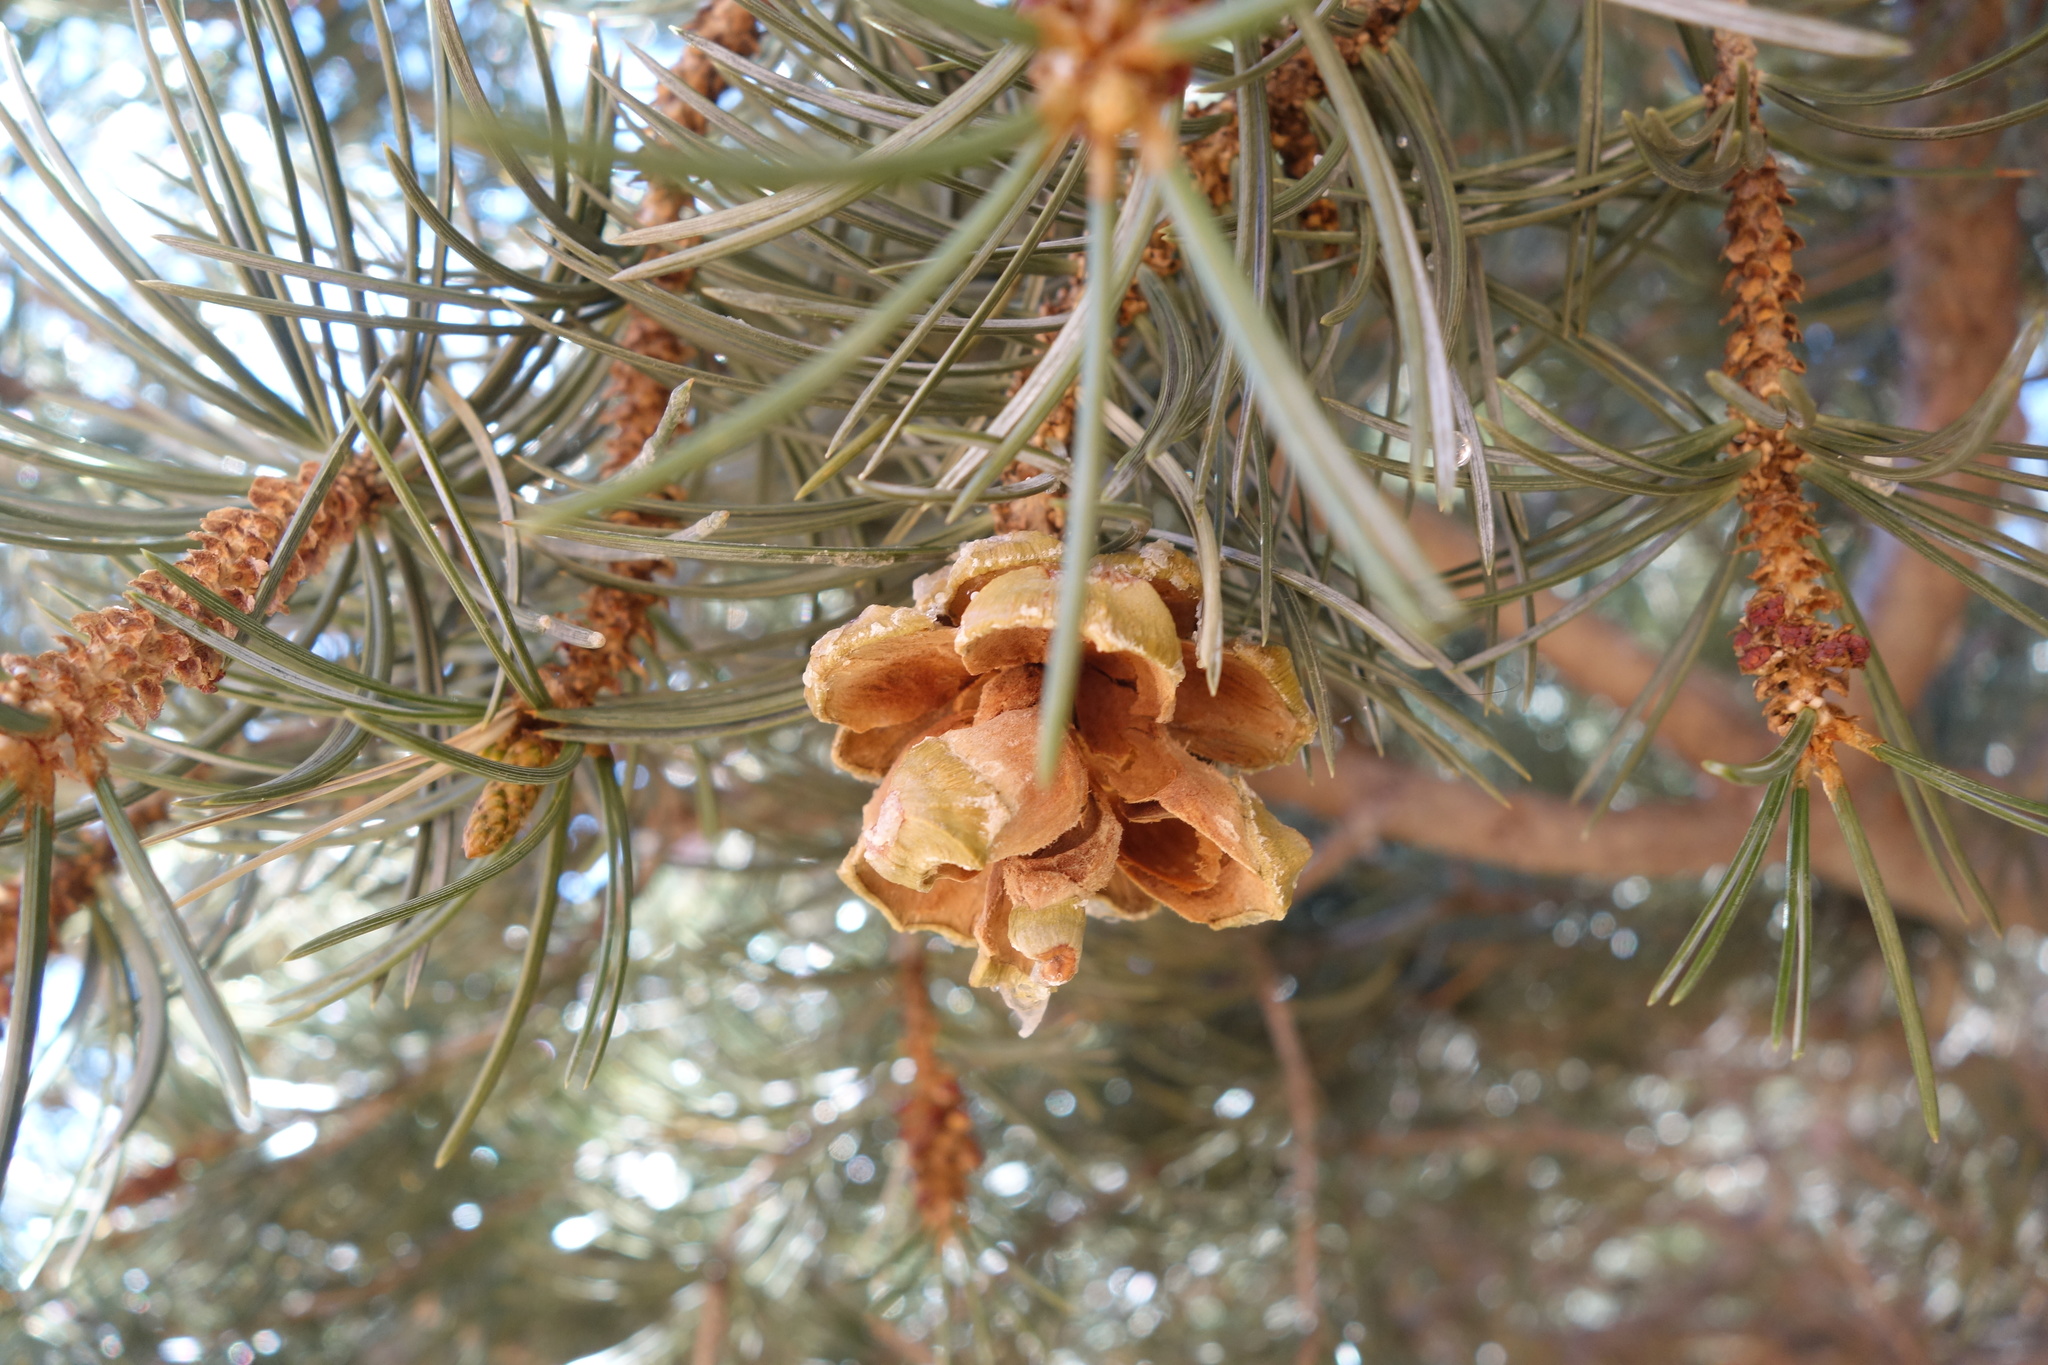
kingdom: Plantae
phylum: Tracheophyta
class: Pinopsida
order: Pinales
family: Pinaceae
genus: Pinus
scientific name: Pinus edulis
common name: Colorado pinyon
